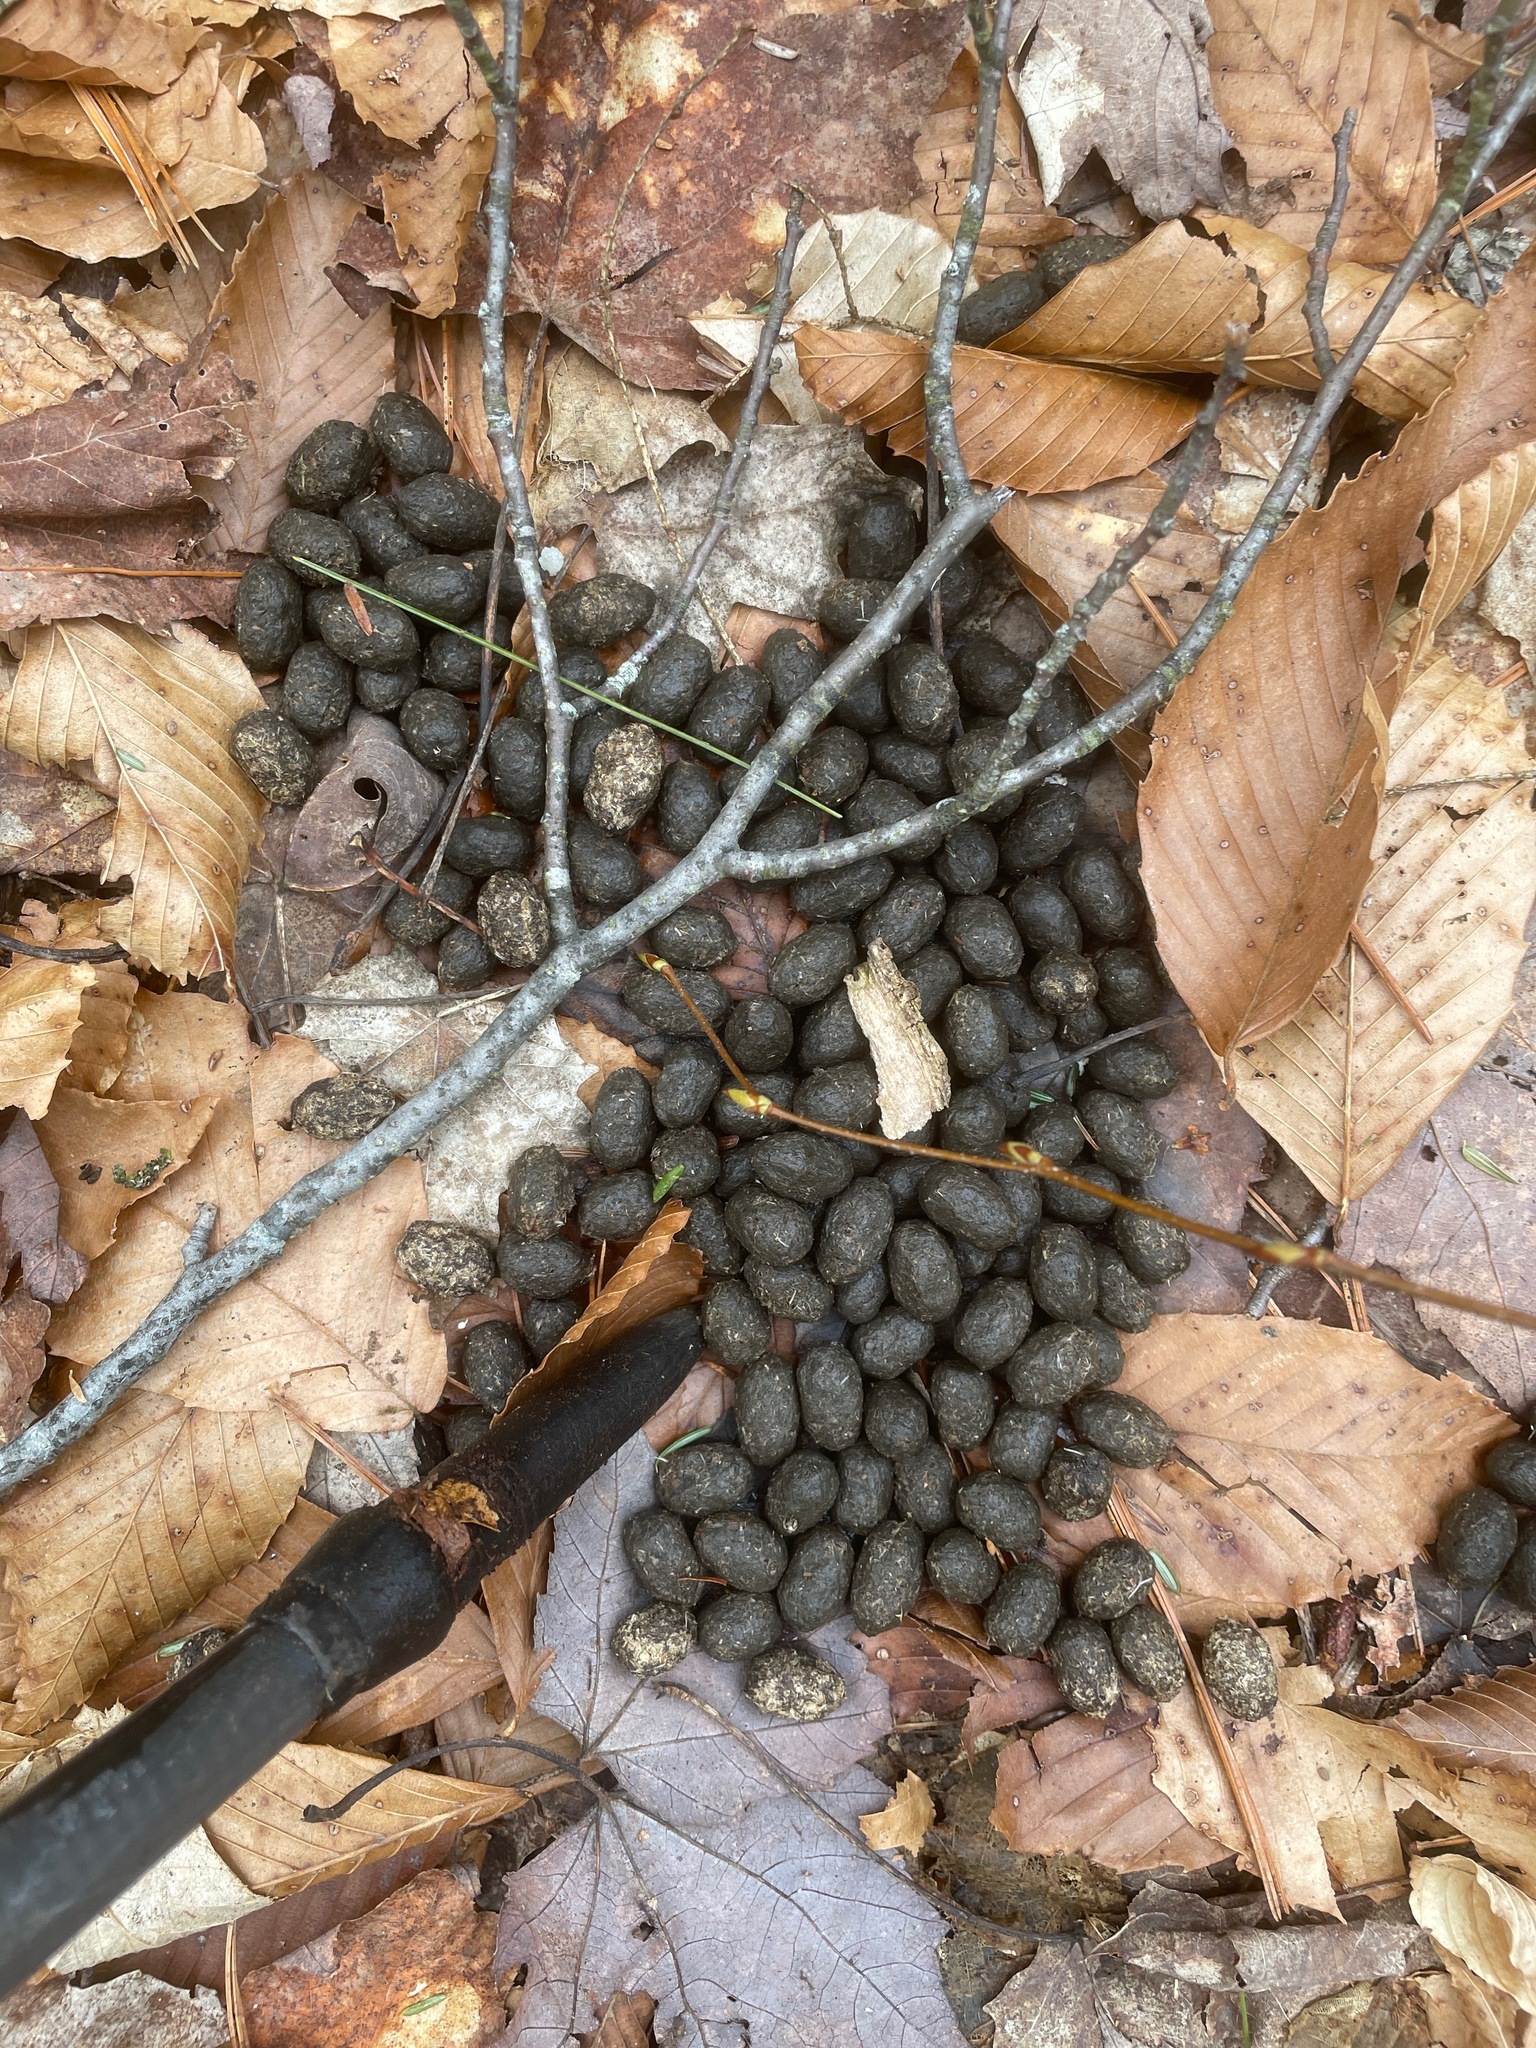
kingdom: Animalia
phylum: Chordata
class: Mammalia
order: Artiodactyla
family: Cervidae
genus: Odocoileus
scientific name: Odocoileus virginianus
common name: White-tailed deer
